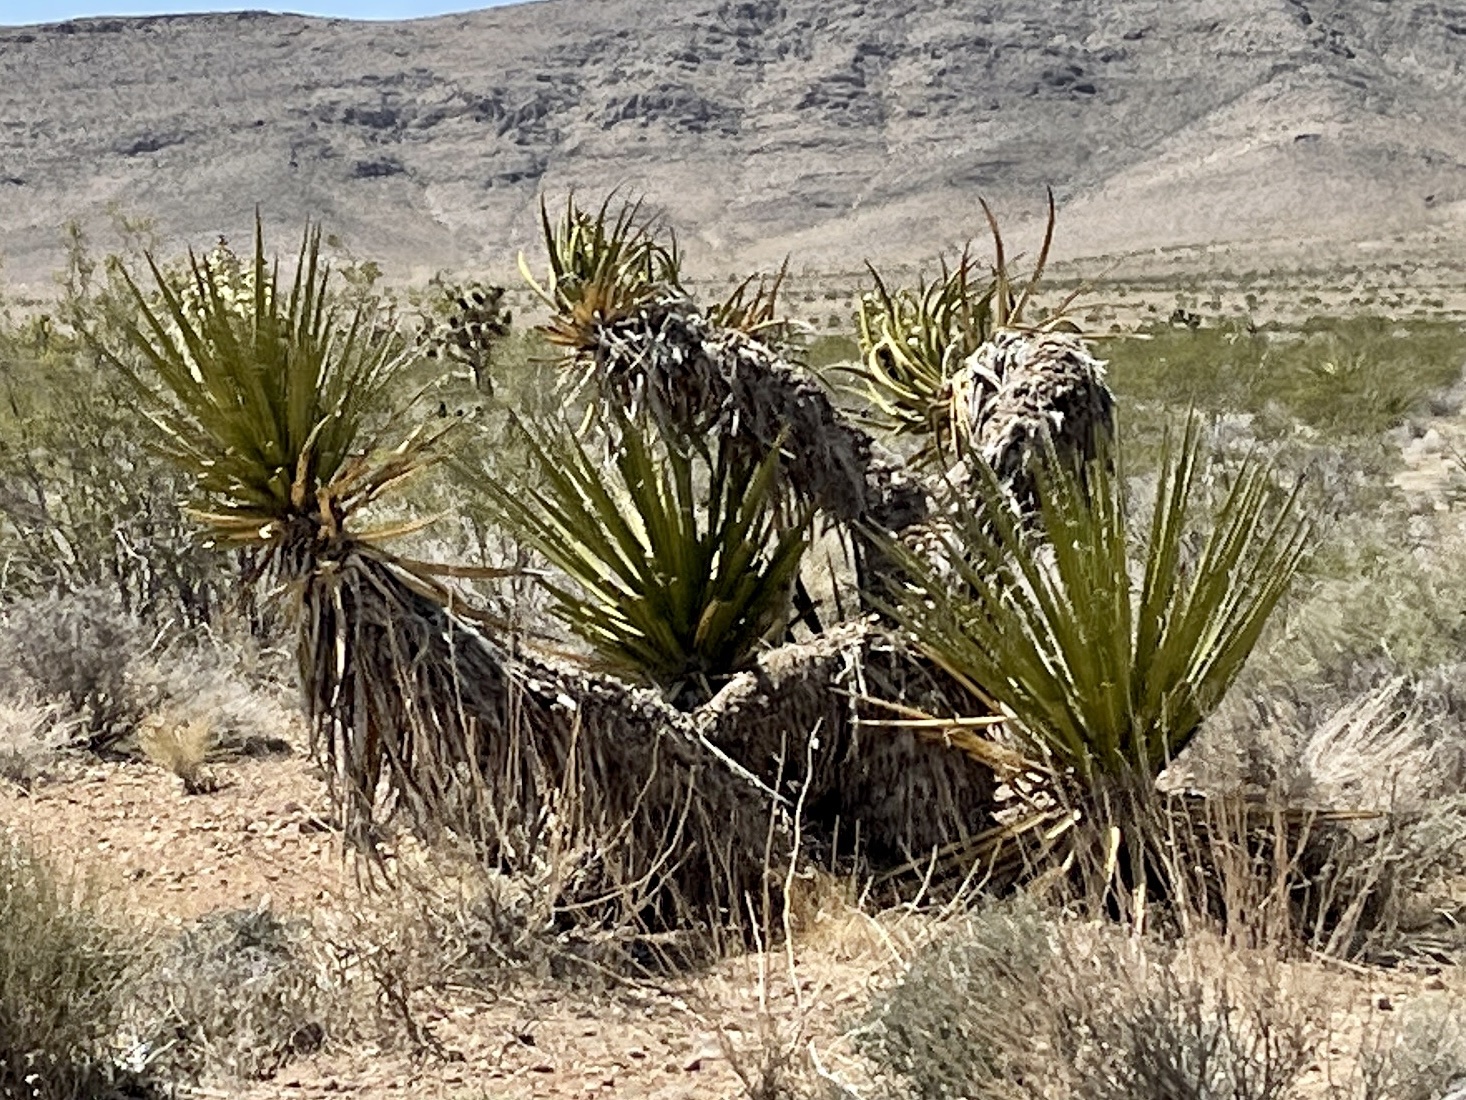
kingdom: Plantae
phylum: Tracheophyta
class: Liliopsida
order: Asparagales
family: Asparagaceae
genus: Yucca
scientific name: Yucca schidigera
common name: Mojave yucca
